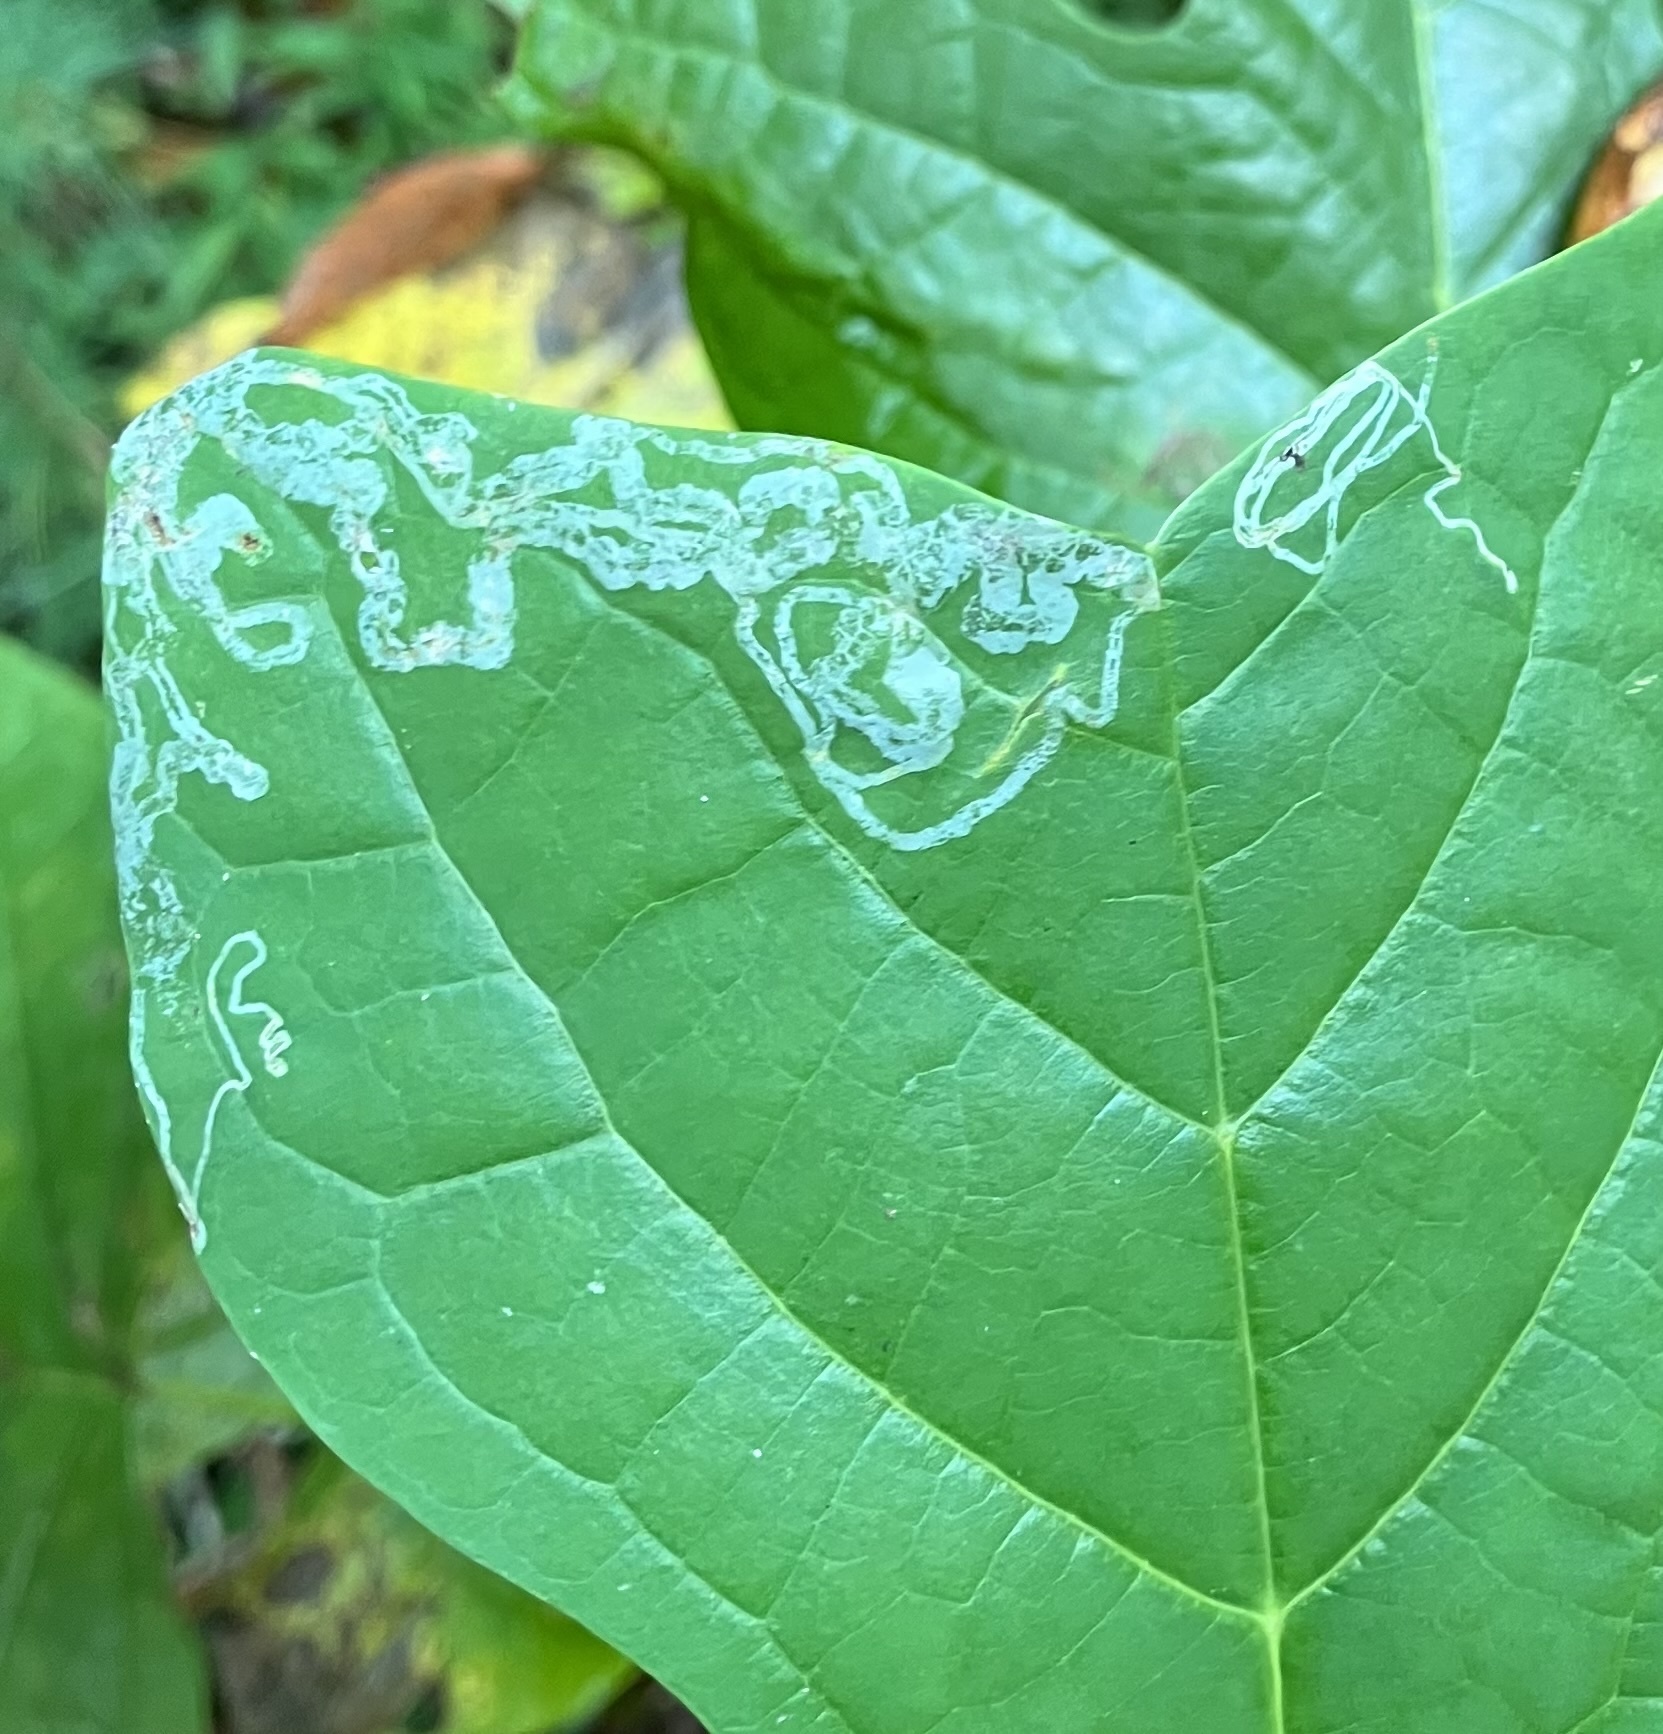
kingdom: Animalia
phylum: Arthropoda
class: Insecta
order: Lepidoptera
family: Gracillariidae
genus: Phyllocnistis
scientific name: Phyllocnistis liriodendronella
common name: Tulip tree leaf miner
